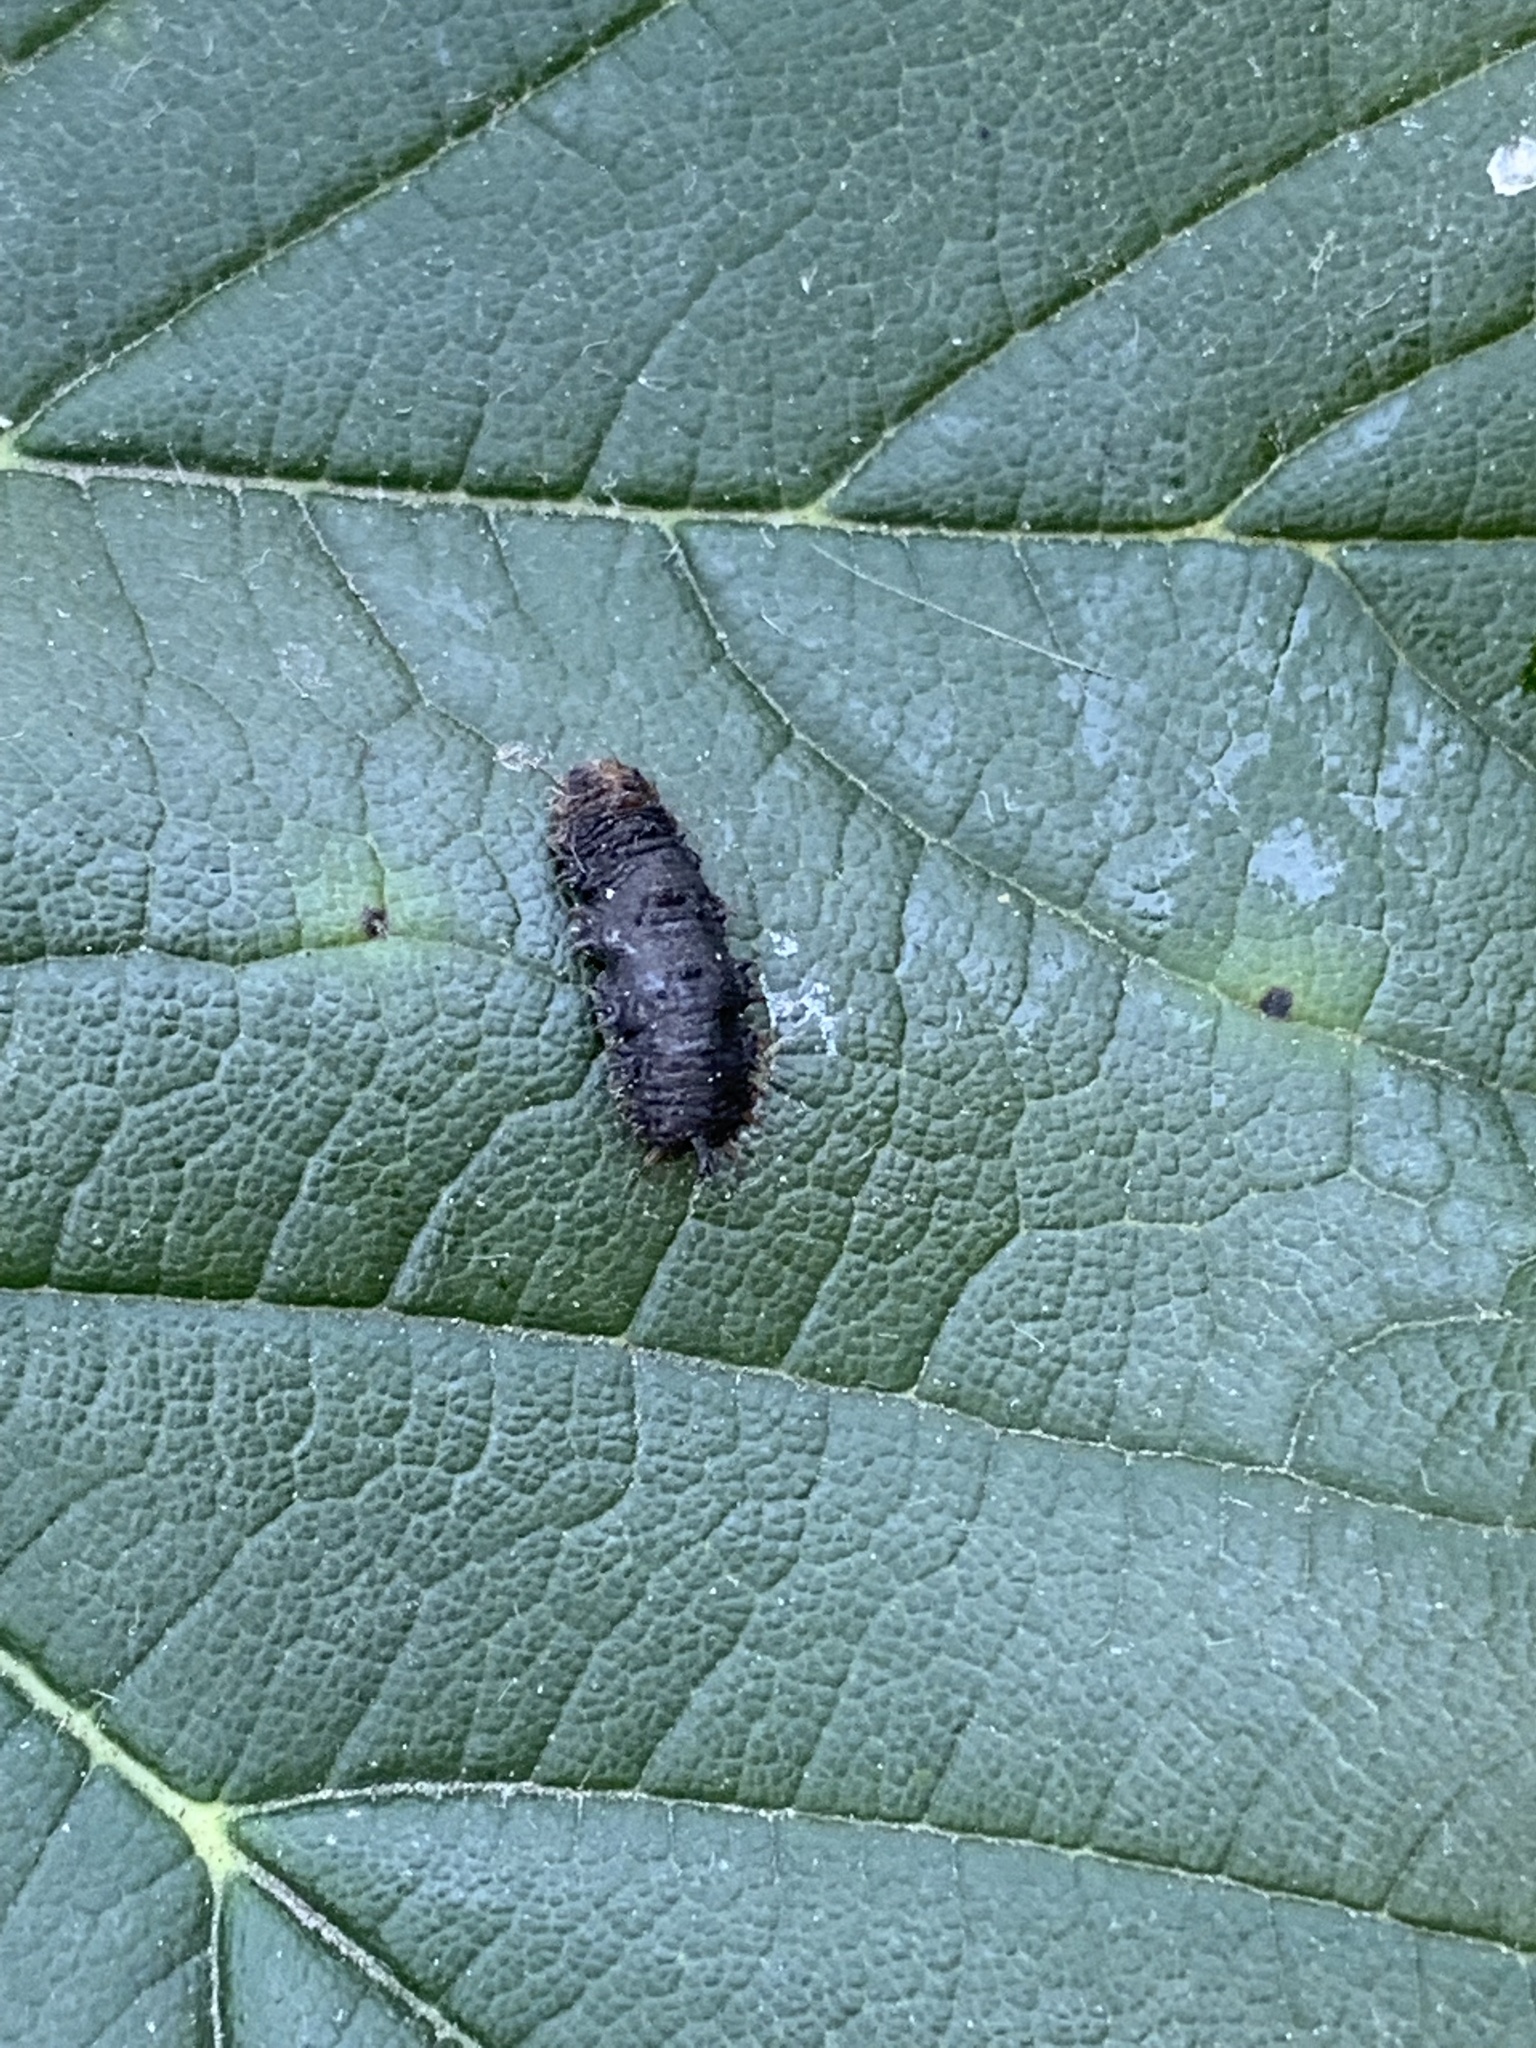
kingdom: Animalia
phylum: Arthropoda
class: Insecta
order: Diptera
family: Syrphidae
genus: Dasysyrphus
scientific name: Dasysyrphus albostriatus
